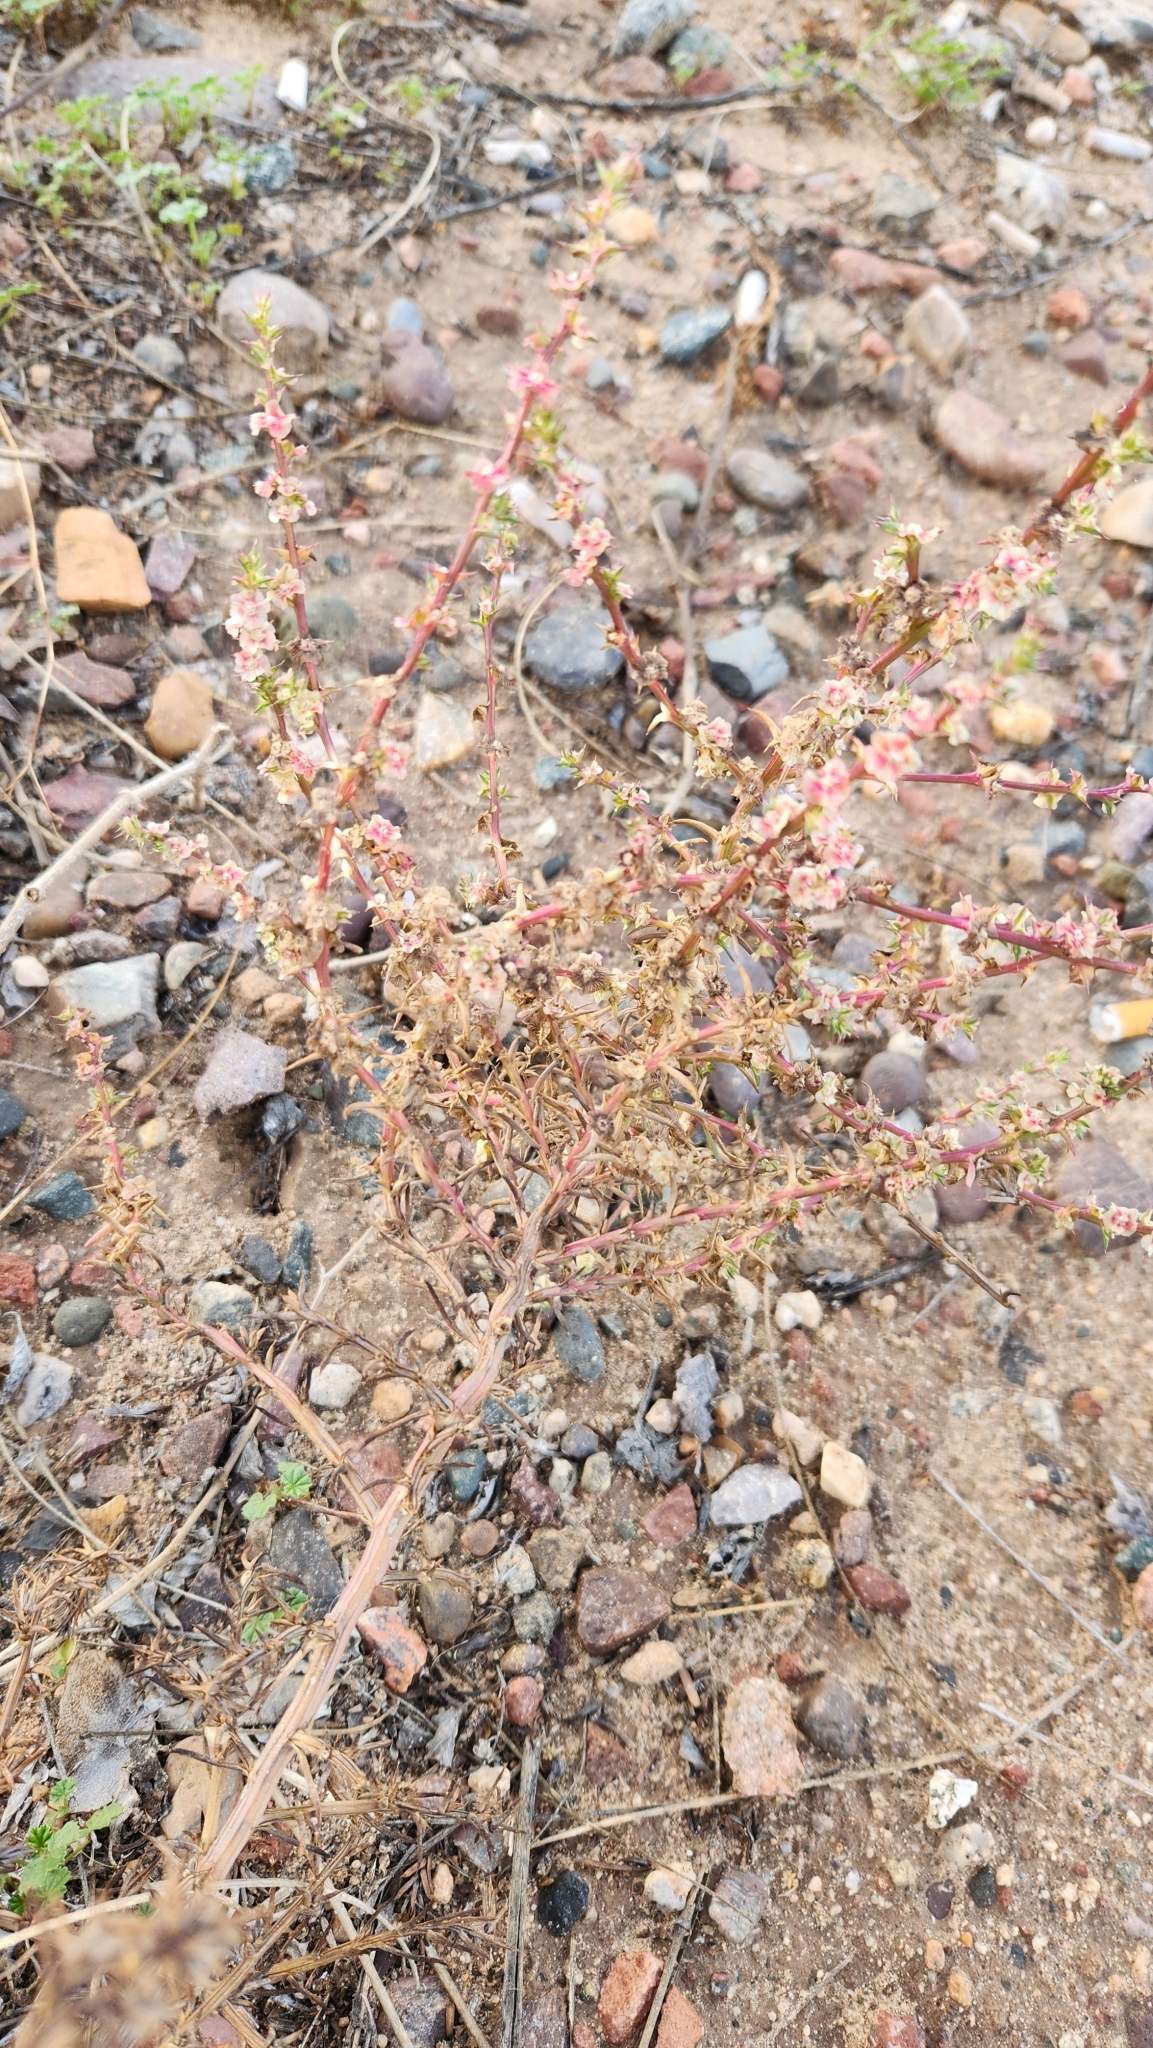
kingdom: Plantae
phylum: Tracheophyta
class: Magnoliopsida
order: Caryophyllales
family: Amaranthaceae
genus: Salsola
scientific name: Salsola tragus
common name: Prickly russian thistle
